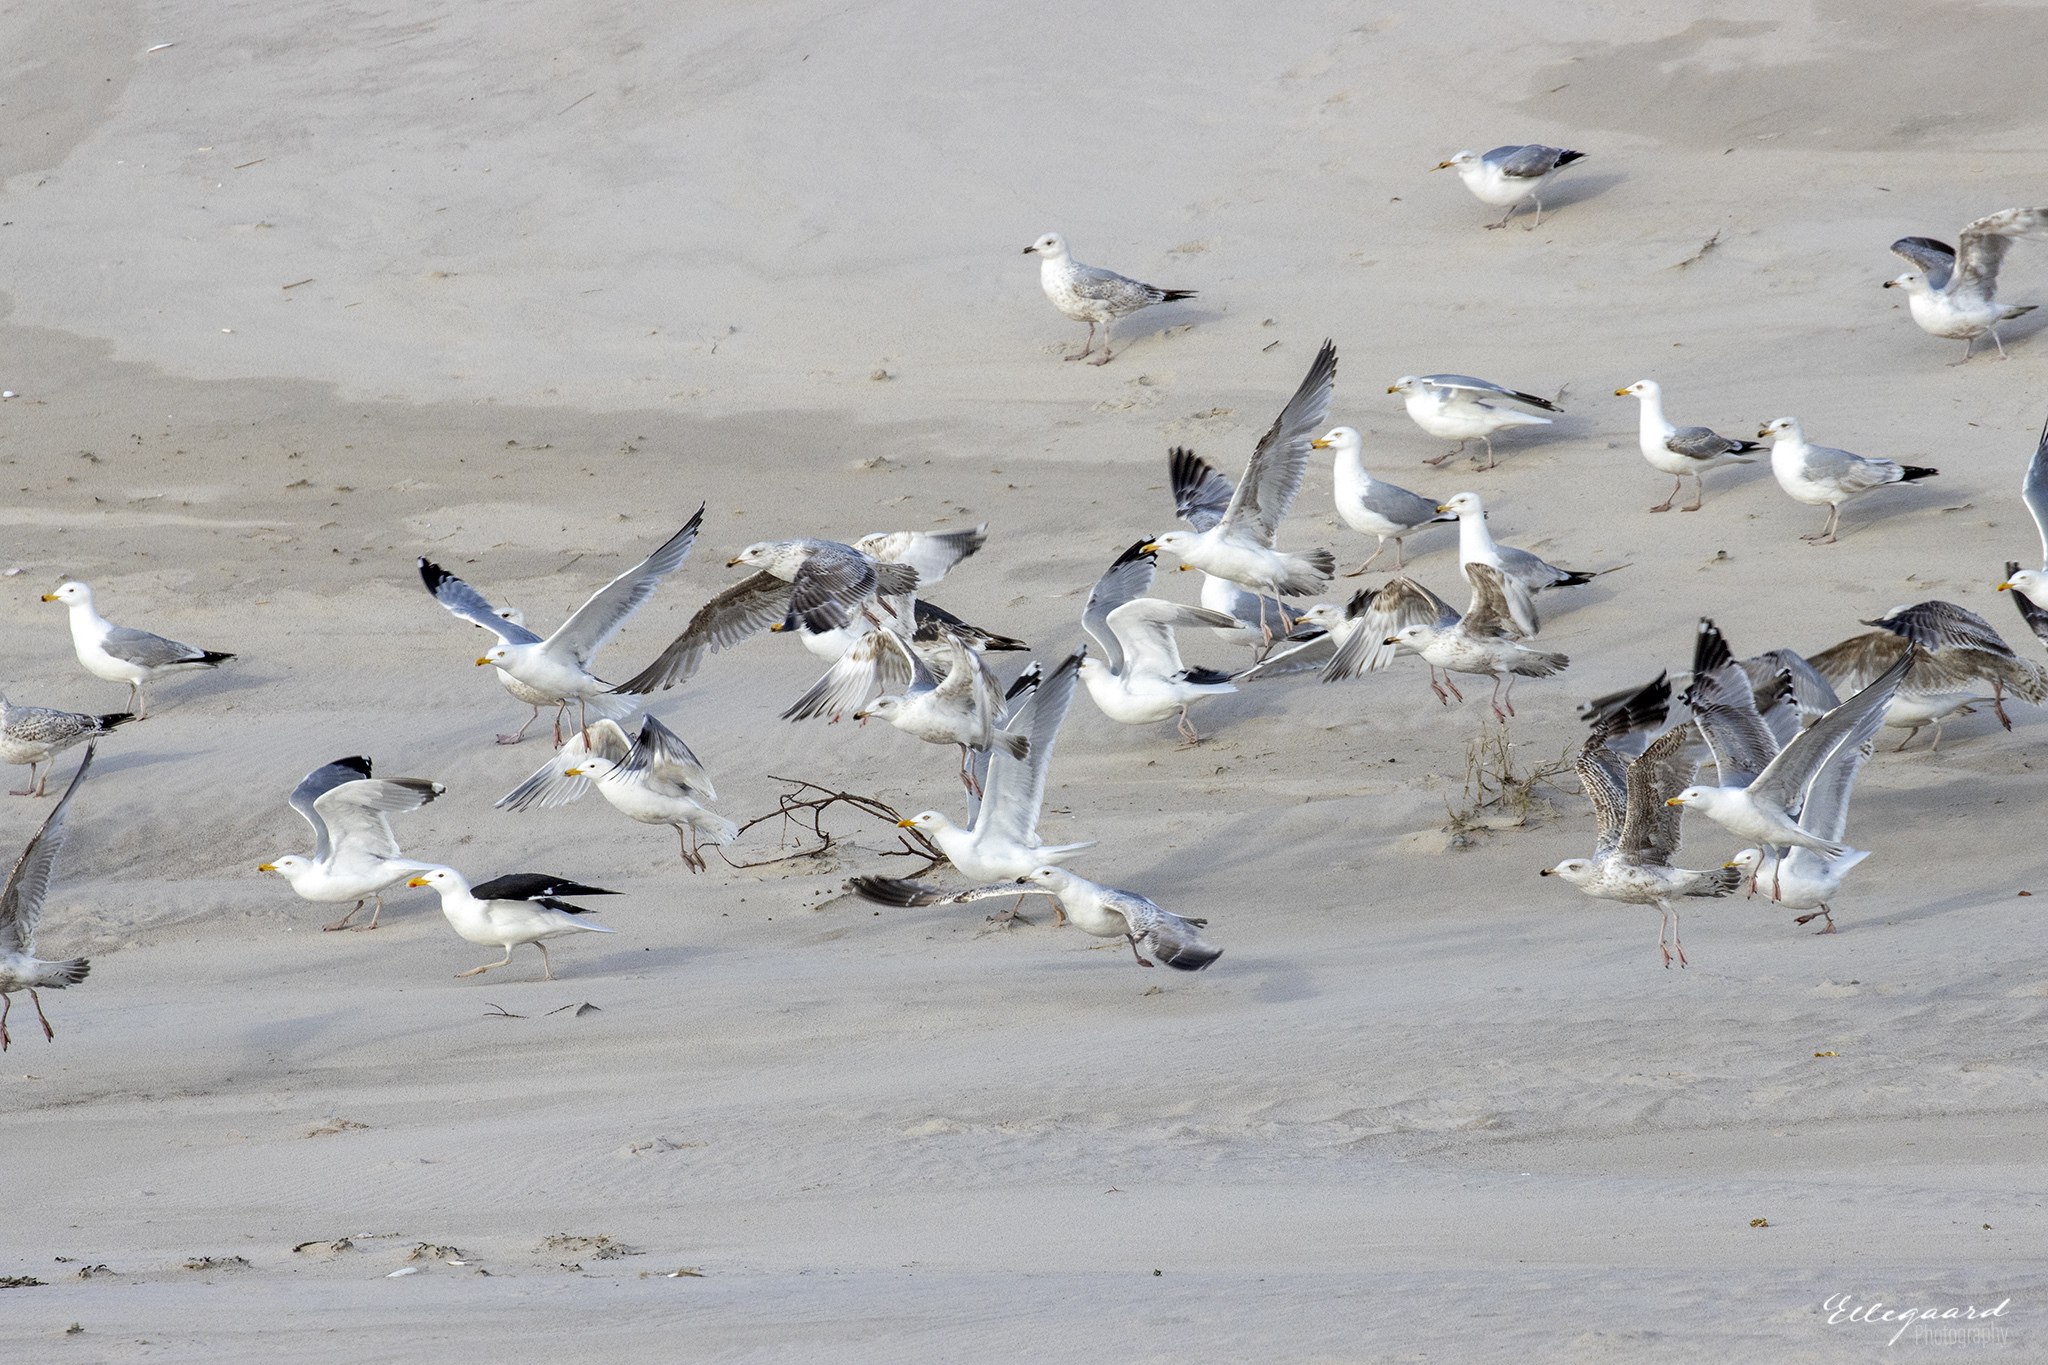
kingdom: Animalia
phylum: Chordata
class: Aves
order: Charadriiformes
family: Laridae
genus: Larus
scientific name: Larus marinus
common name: Great black-backed gull
